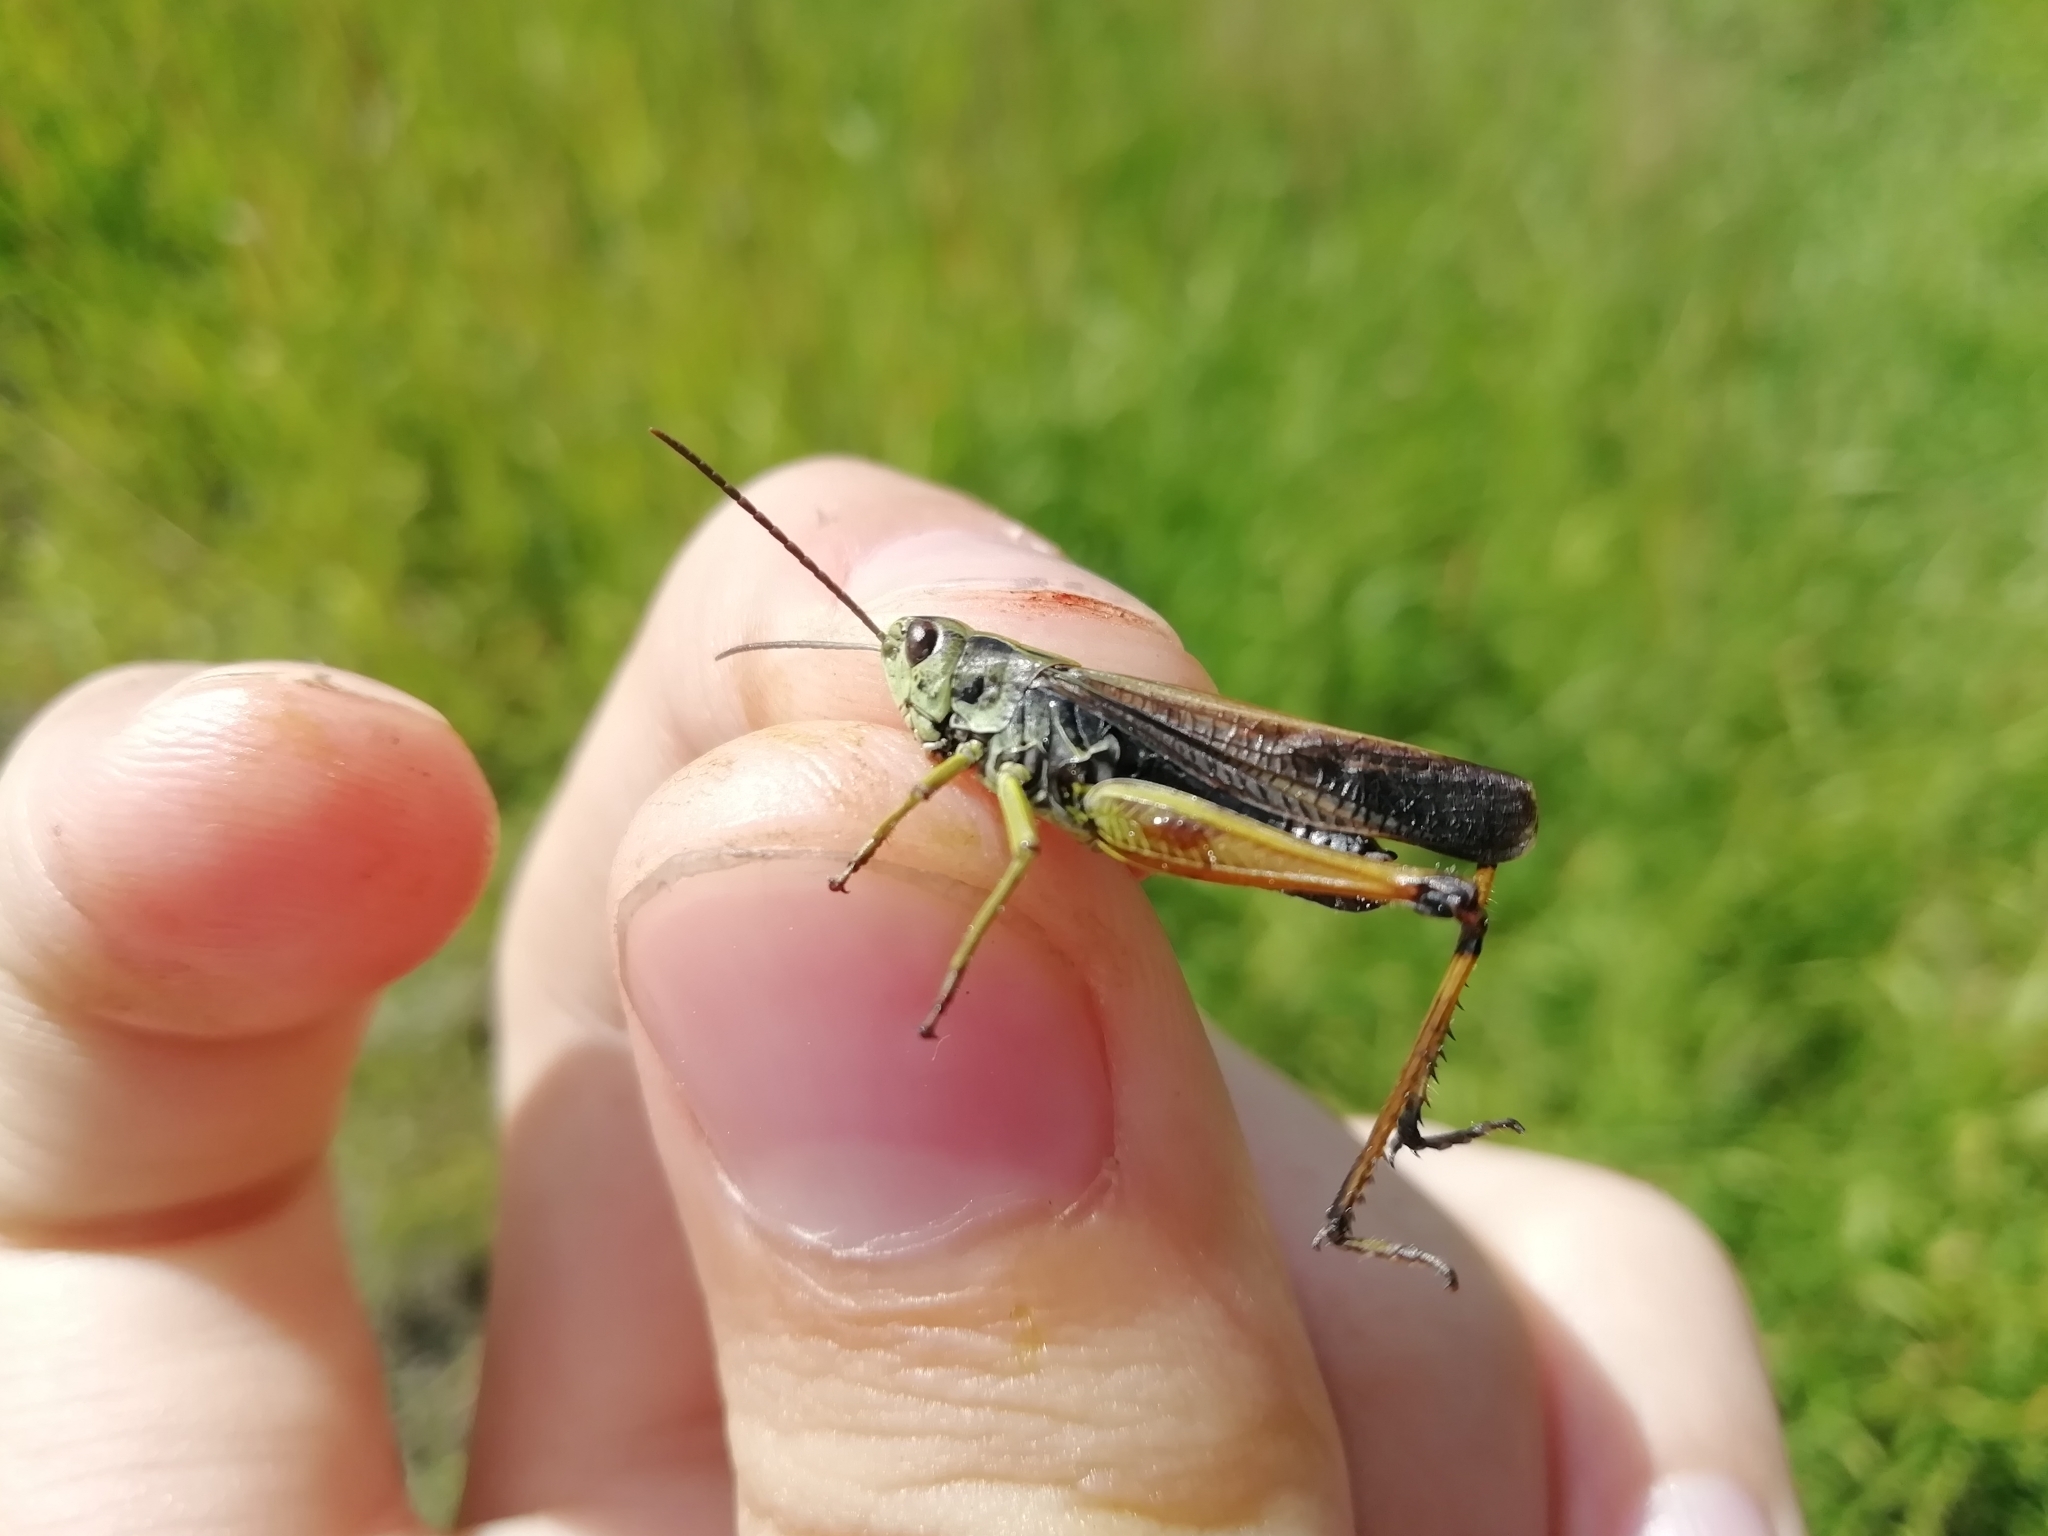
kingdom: Animalia
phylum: Arthropoda
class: Insecta
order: Orthoptera
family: Acrididae
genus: Omocestus
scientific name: Omocestus viridulus
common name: Common green grasshopper
